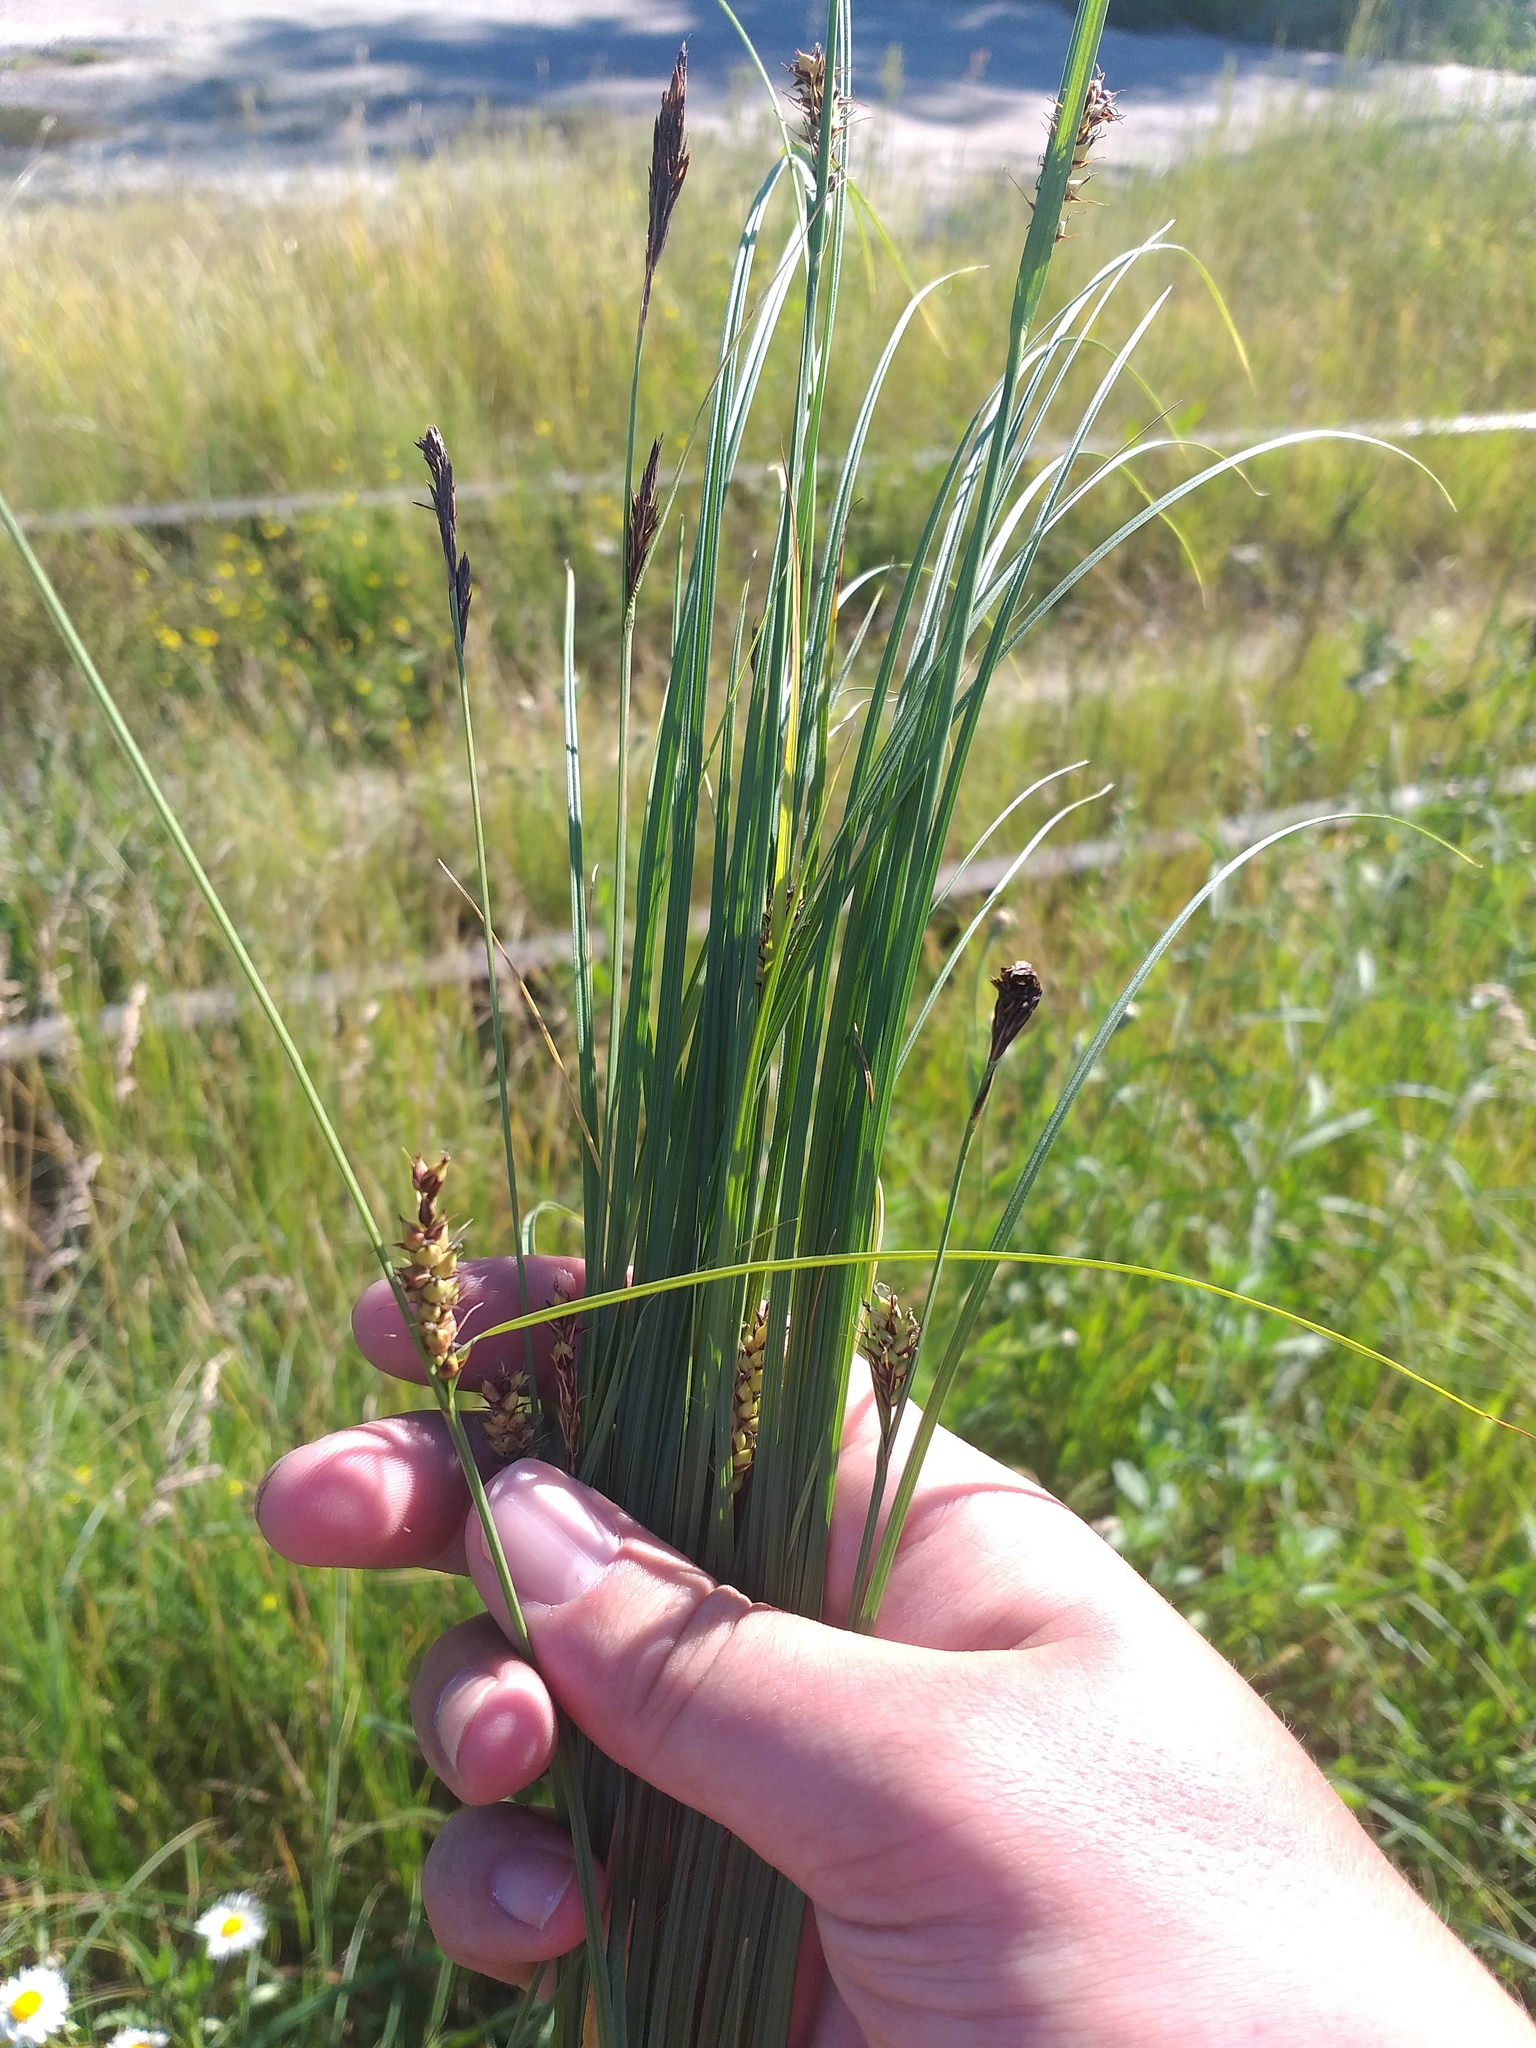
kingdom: Plantae
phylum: Tracheophyta
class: Liliopsida
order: Poales
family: Cyperaceae
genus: Carex
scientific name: Carex melanostachya
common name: Black-spiked sedge
